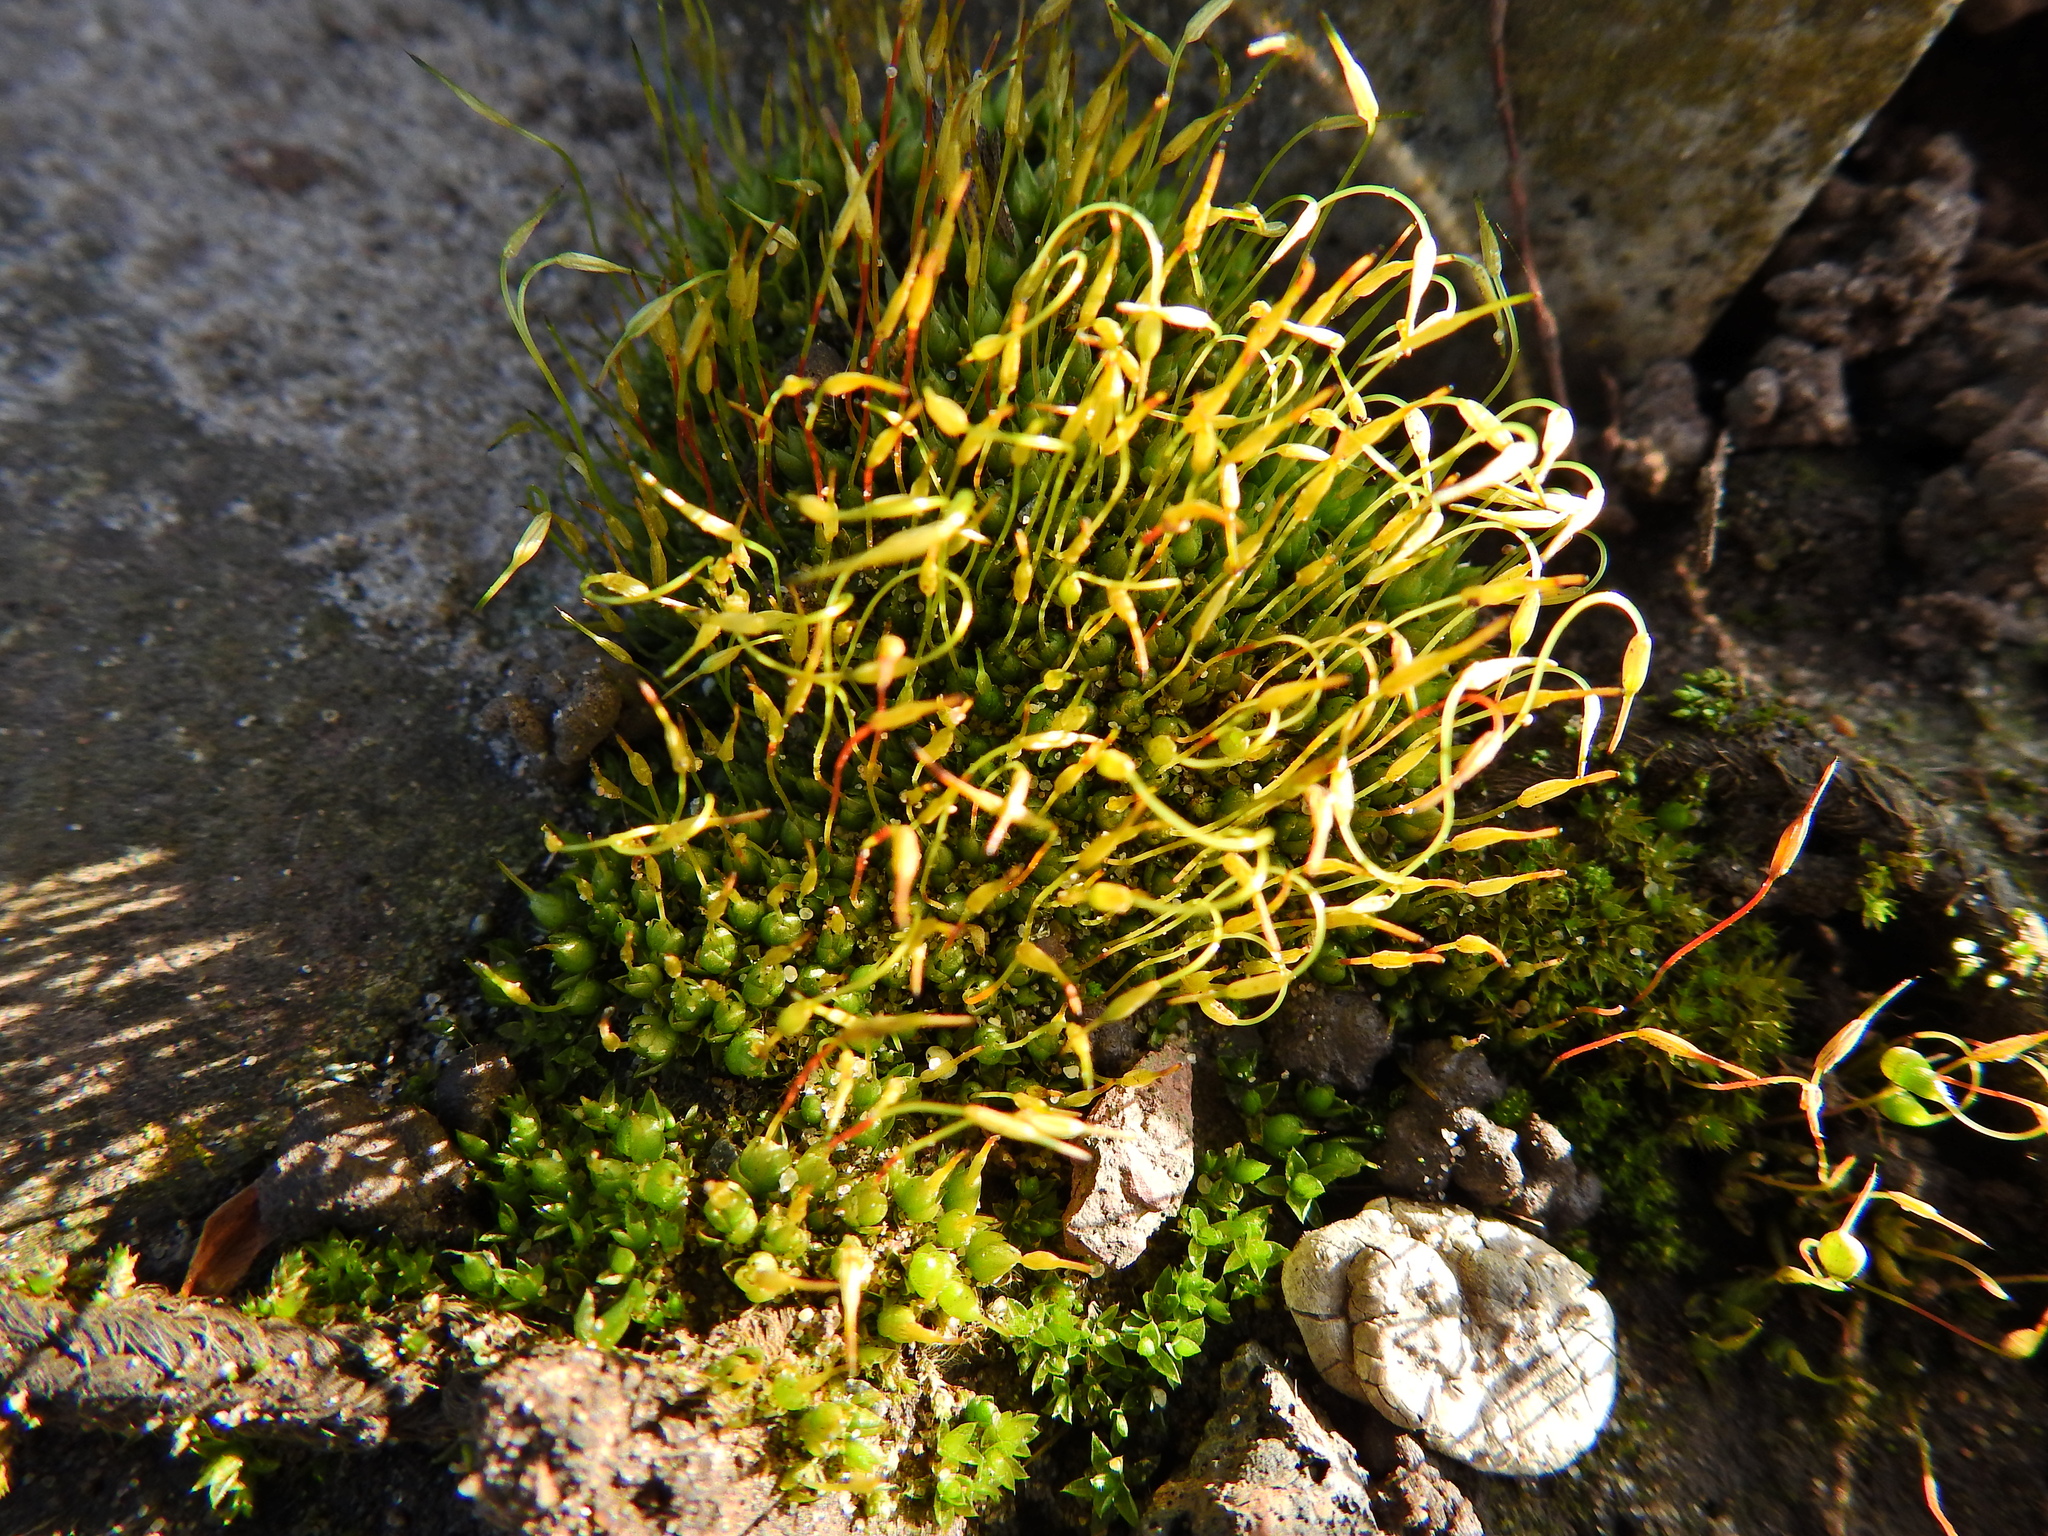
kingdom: Plantae
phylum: Bryophyta
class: Bryopsida
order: Funariales
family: Funariaceae
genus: Funaria
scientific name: Funaria hygrometrica
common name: Common cord moss
